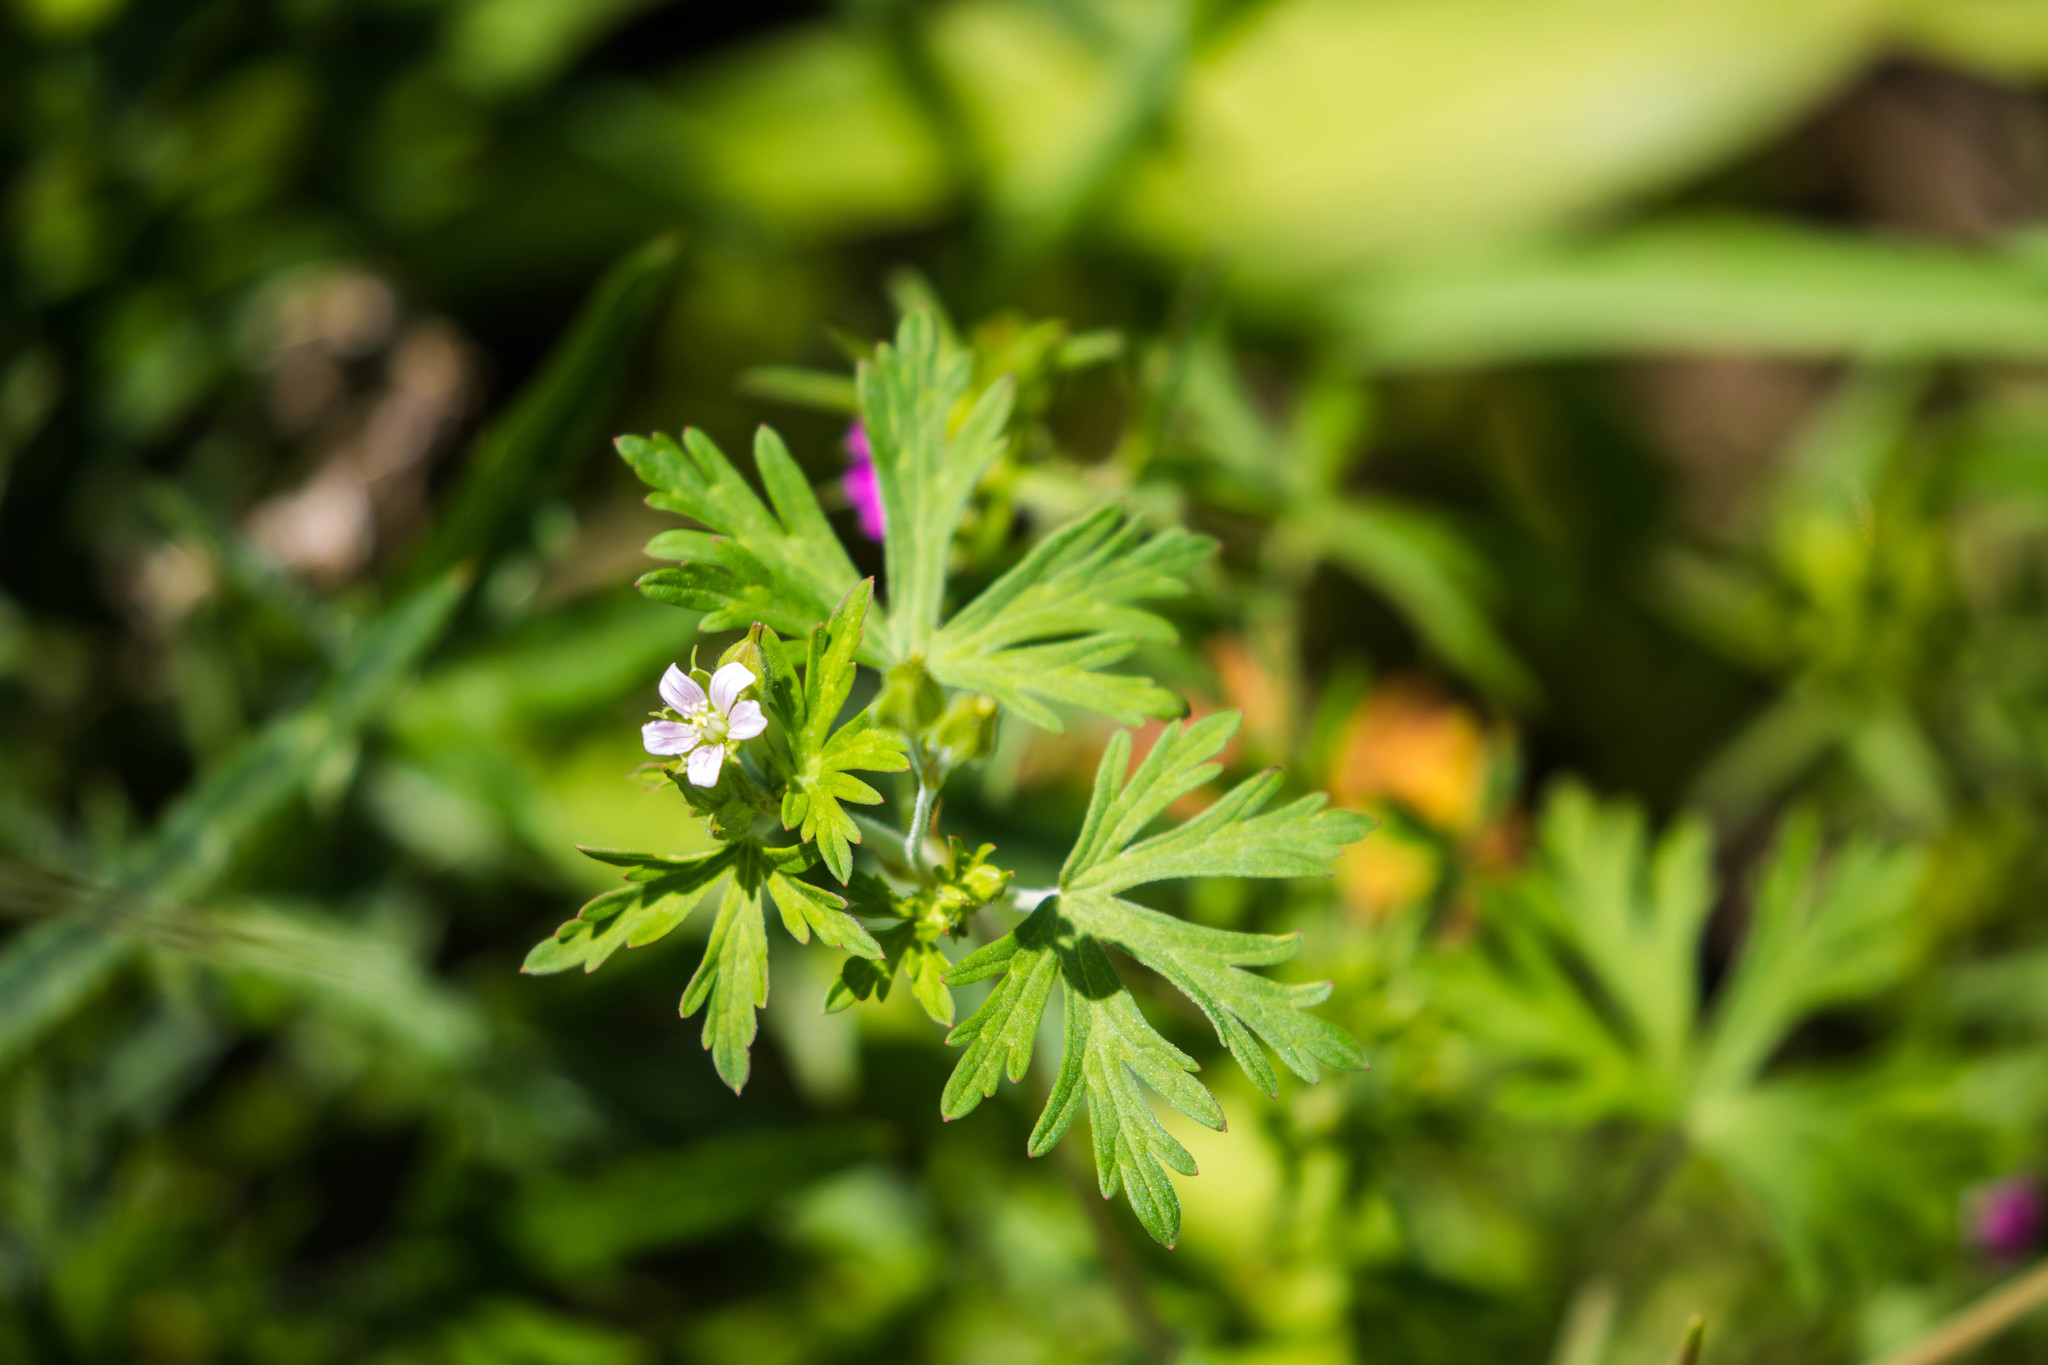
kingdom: Plantae
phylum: Tracheophyta
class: Magnoliopsida
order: Geraniales
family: Geraniaceae
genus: Geranium
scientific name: Geranium carolinianum
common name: Carolina crane's-bill
